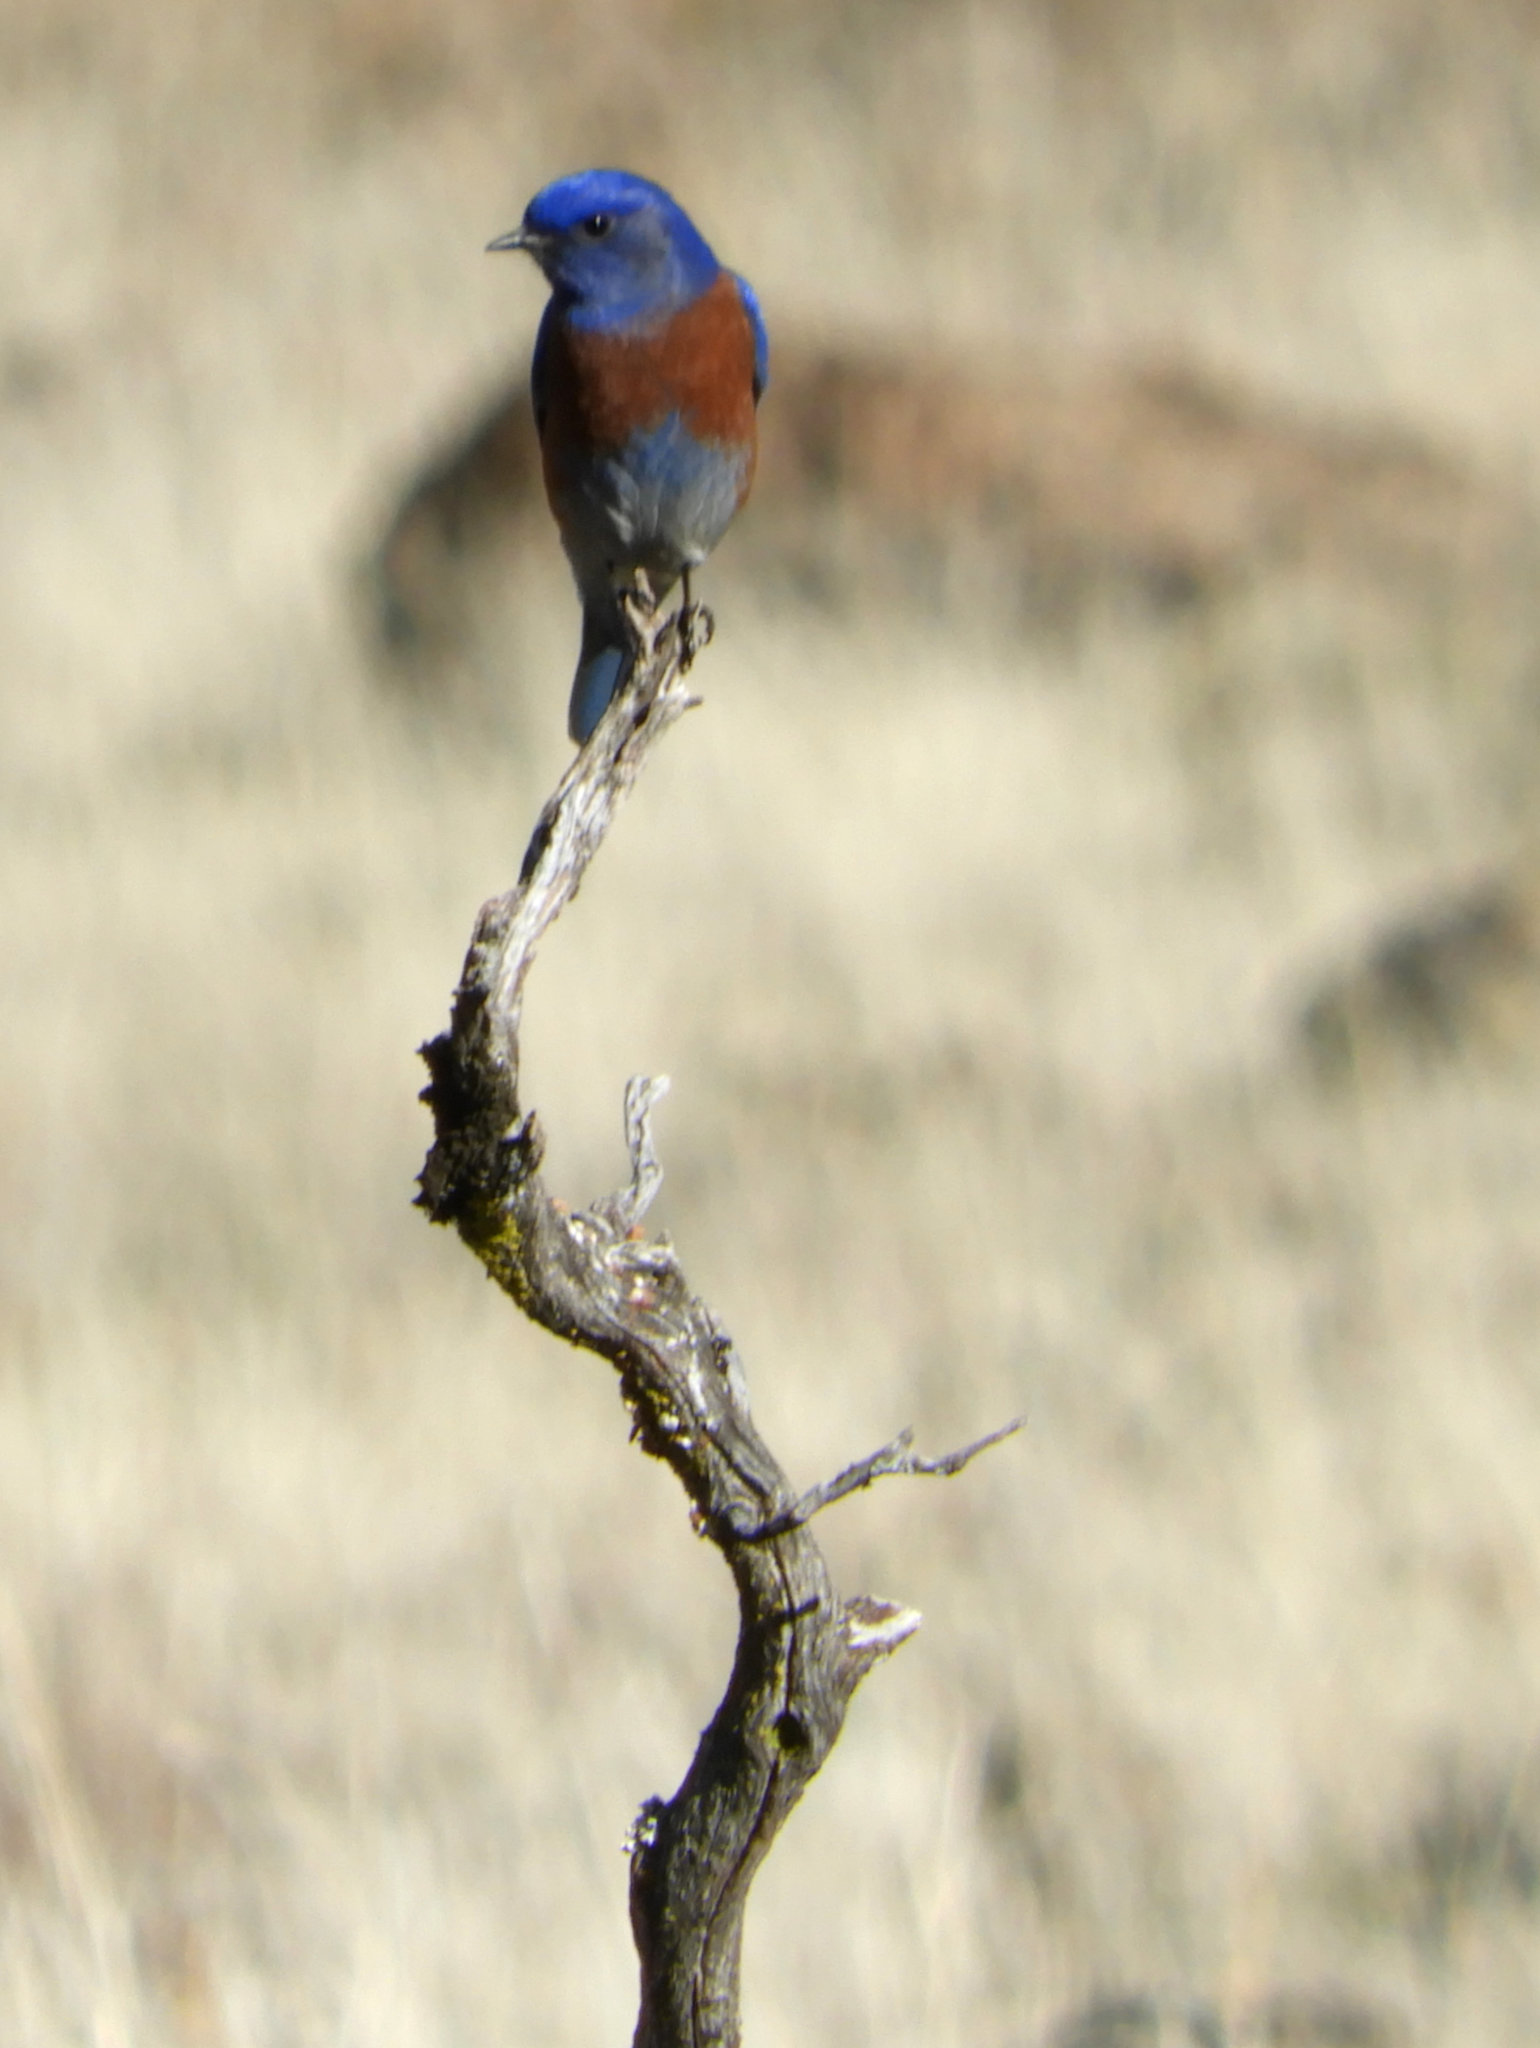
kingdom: Animalia
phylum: Chordata
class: Aves
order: Passeriformes
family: Turdidae
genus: Sialia
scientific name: Sialia mexicana
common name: Western bluebird
